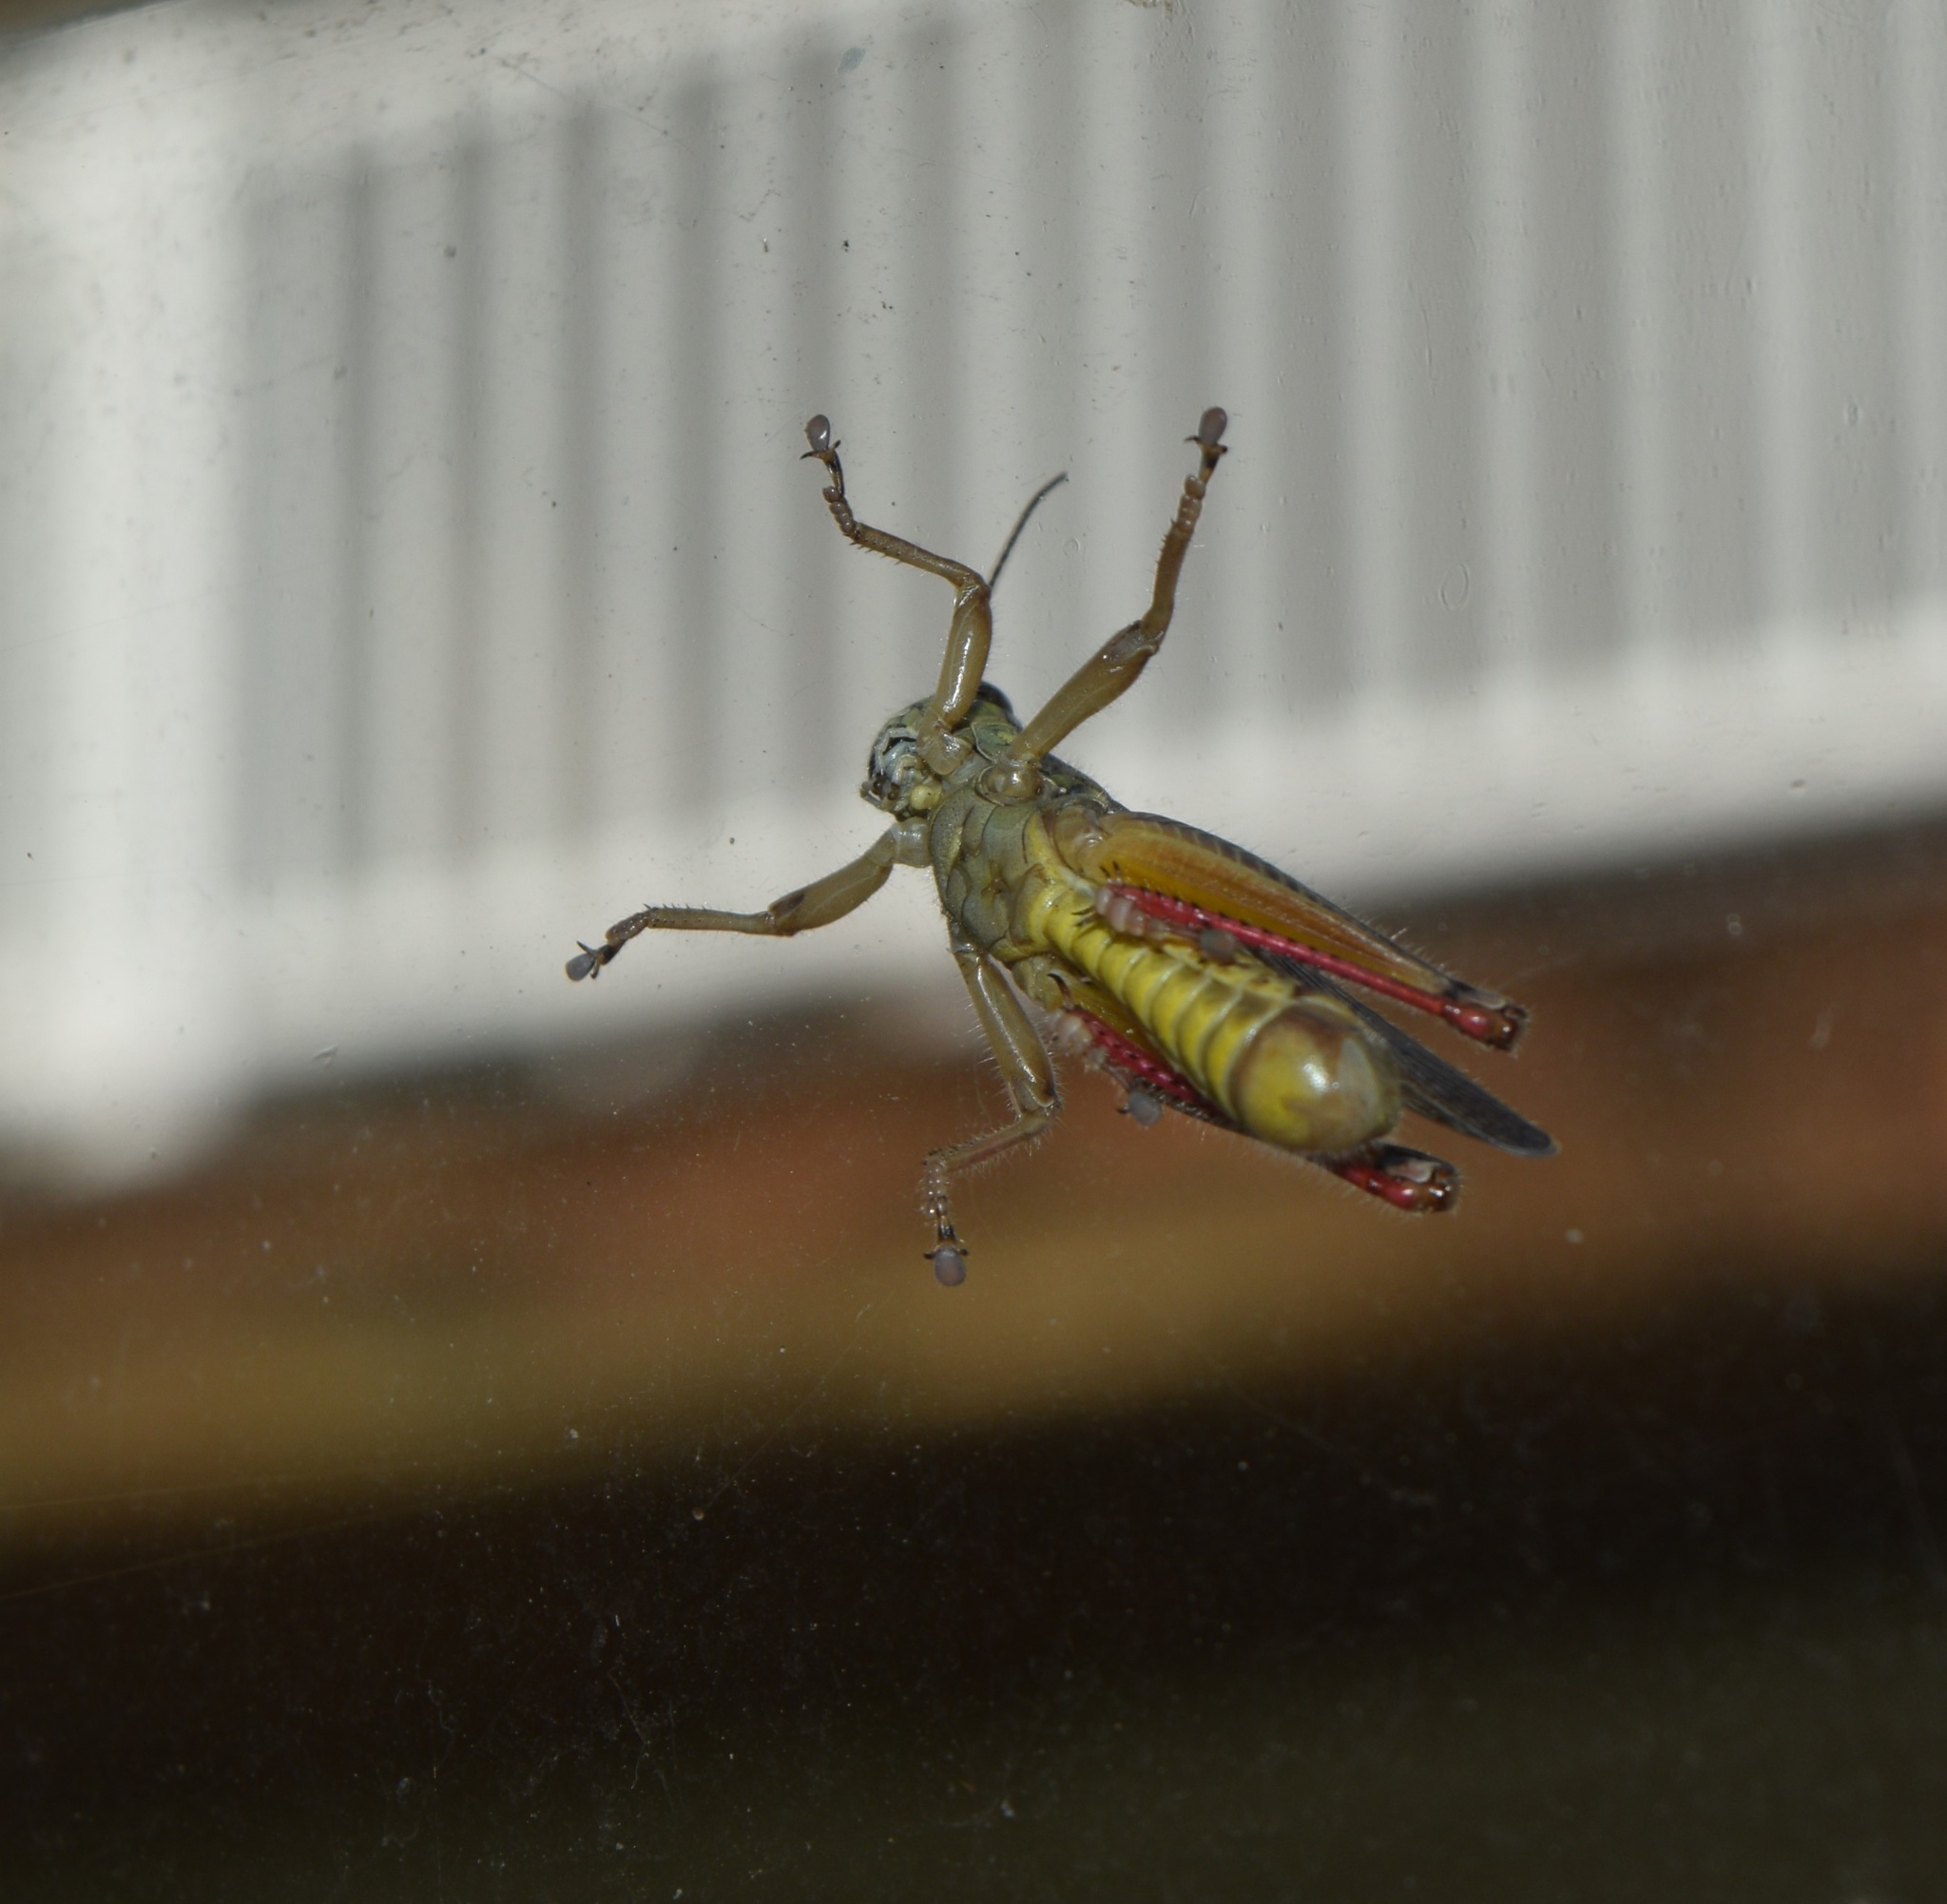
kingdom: Animalia
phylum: Arthropoda
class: Insecta
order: Orthoptera
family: Acrididae
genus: Melanoplus
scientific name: Melanoplus femurrubrum
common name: Red-legged grasshopper
